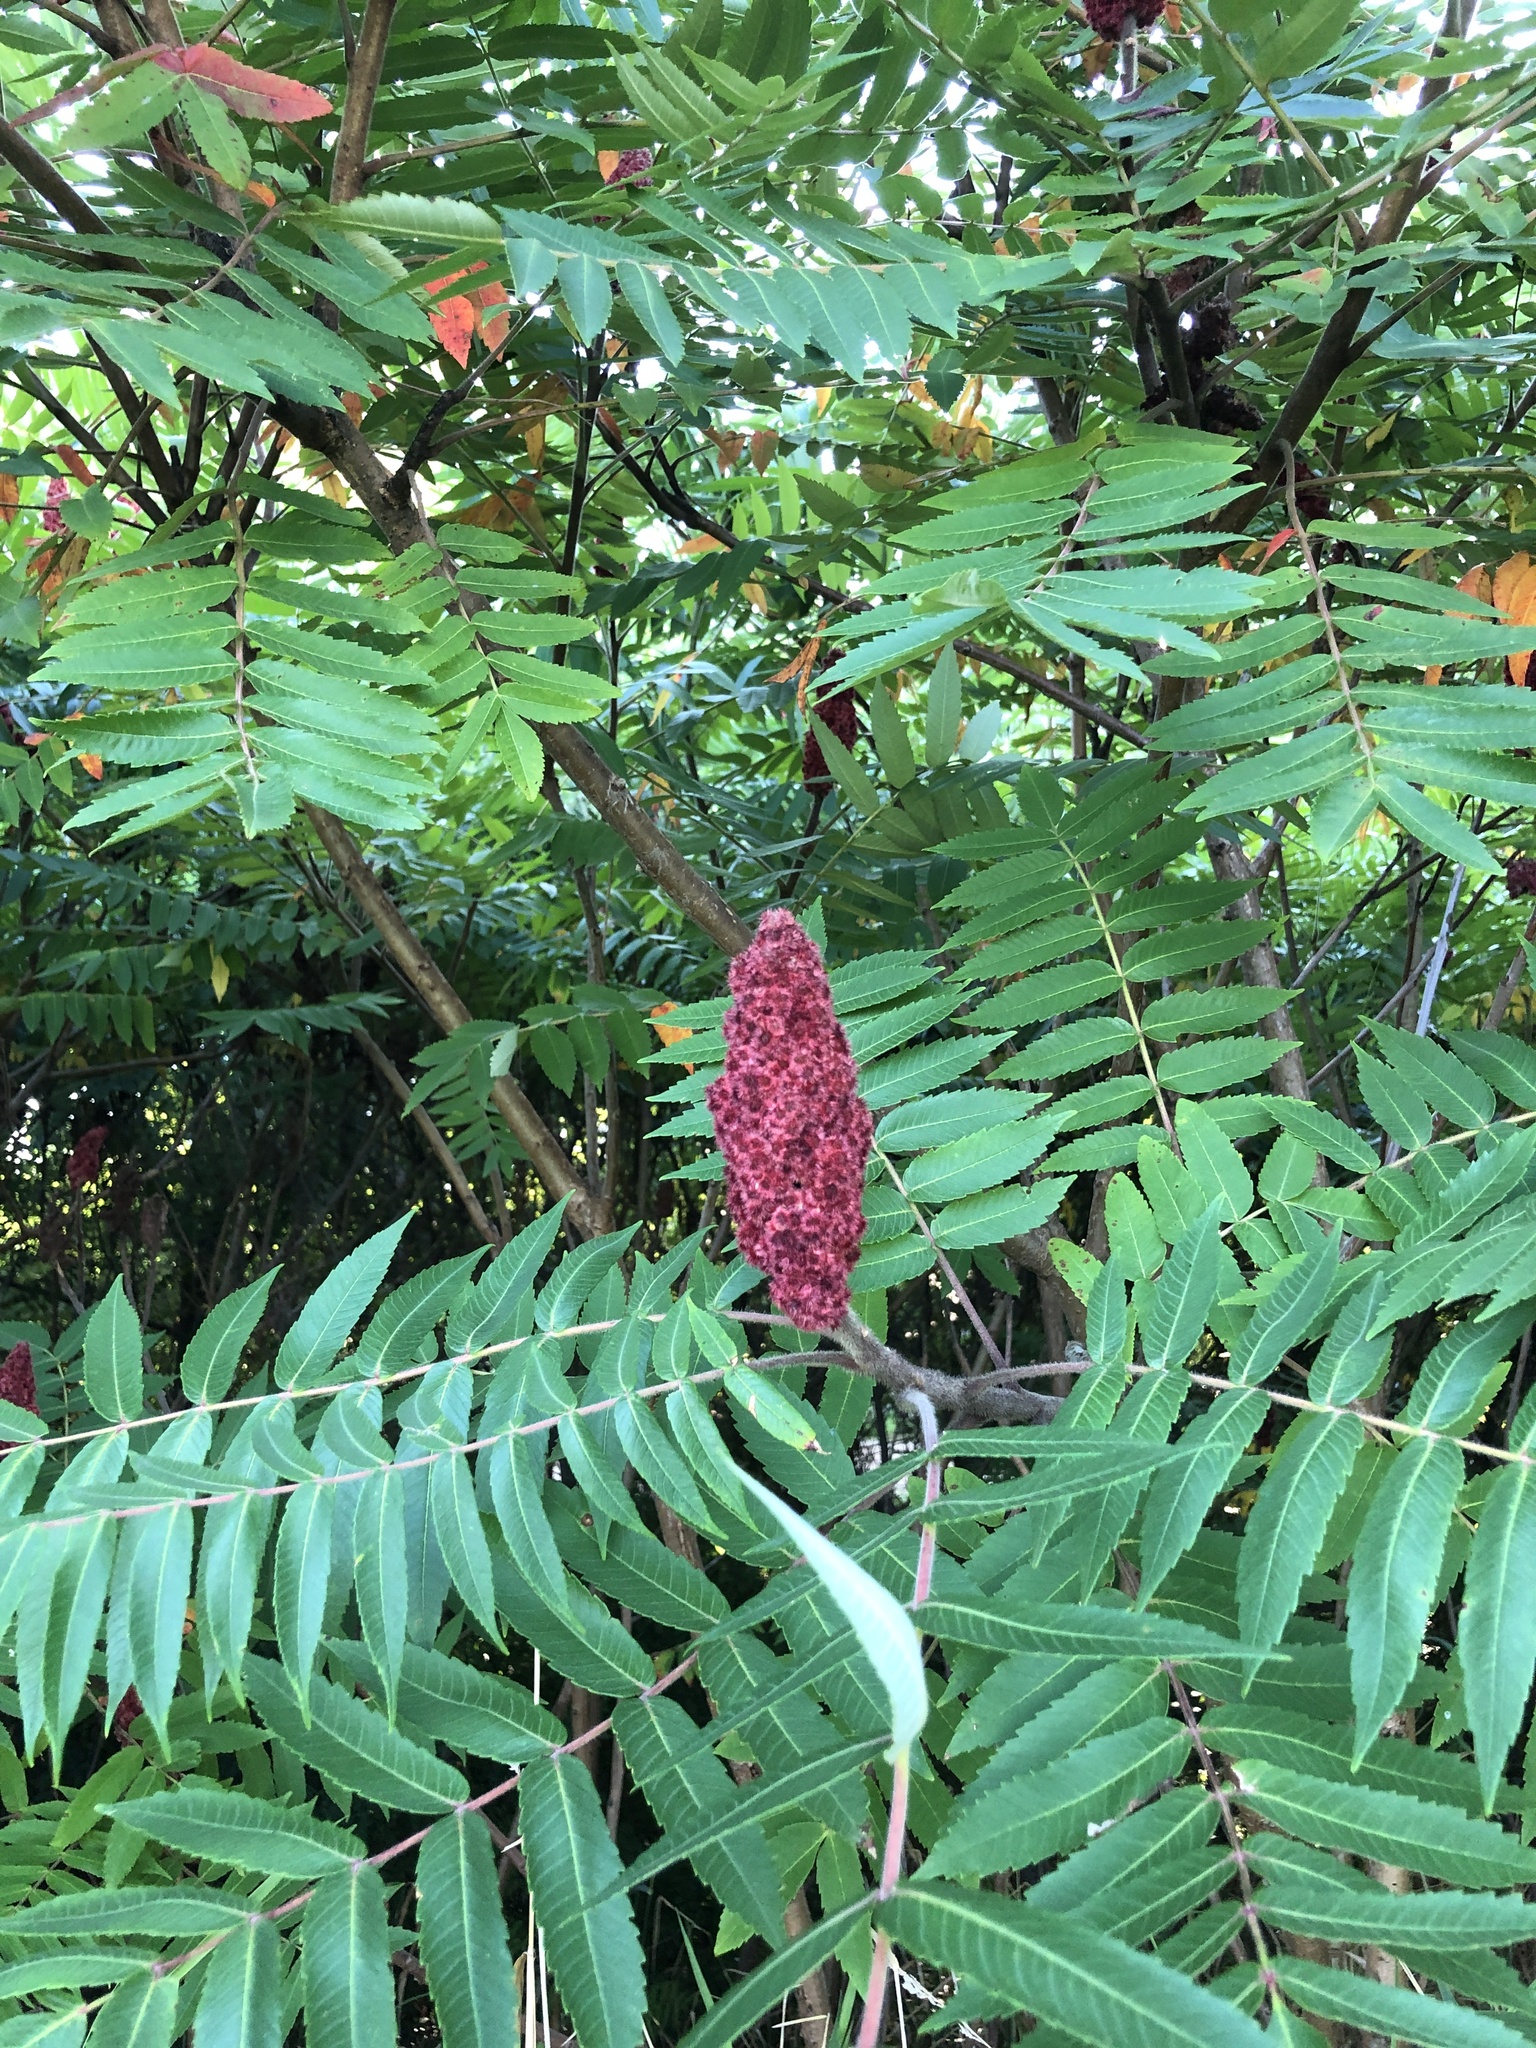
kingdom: Plantae
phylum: Tracheophyta
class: Magnoliopsida
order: Sapindales
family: Anacardiaceae
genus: Rhus
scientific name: Rhus typhina
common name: Staghorn sumac
